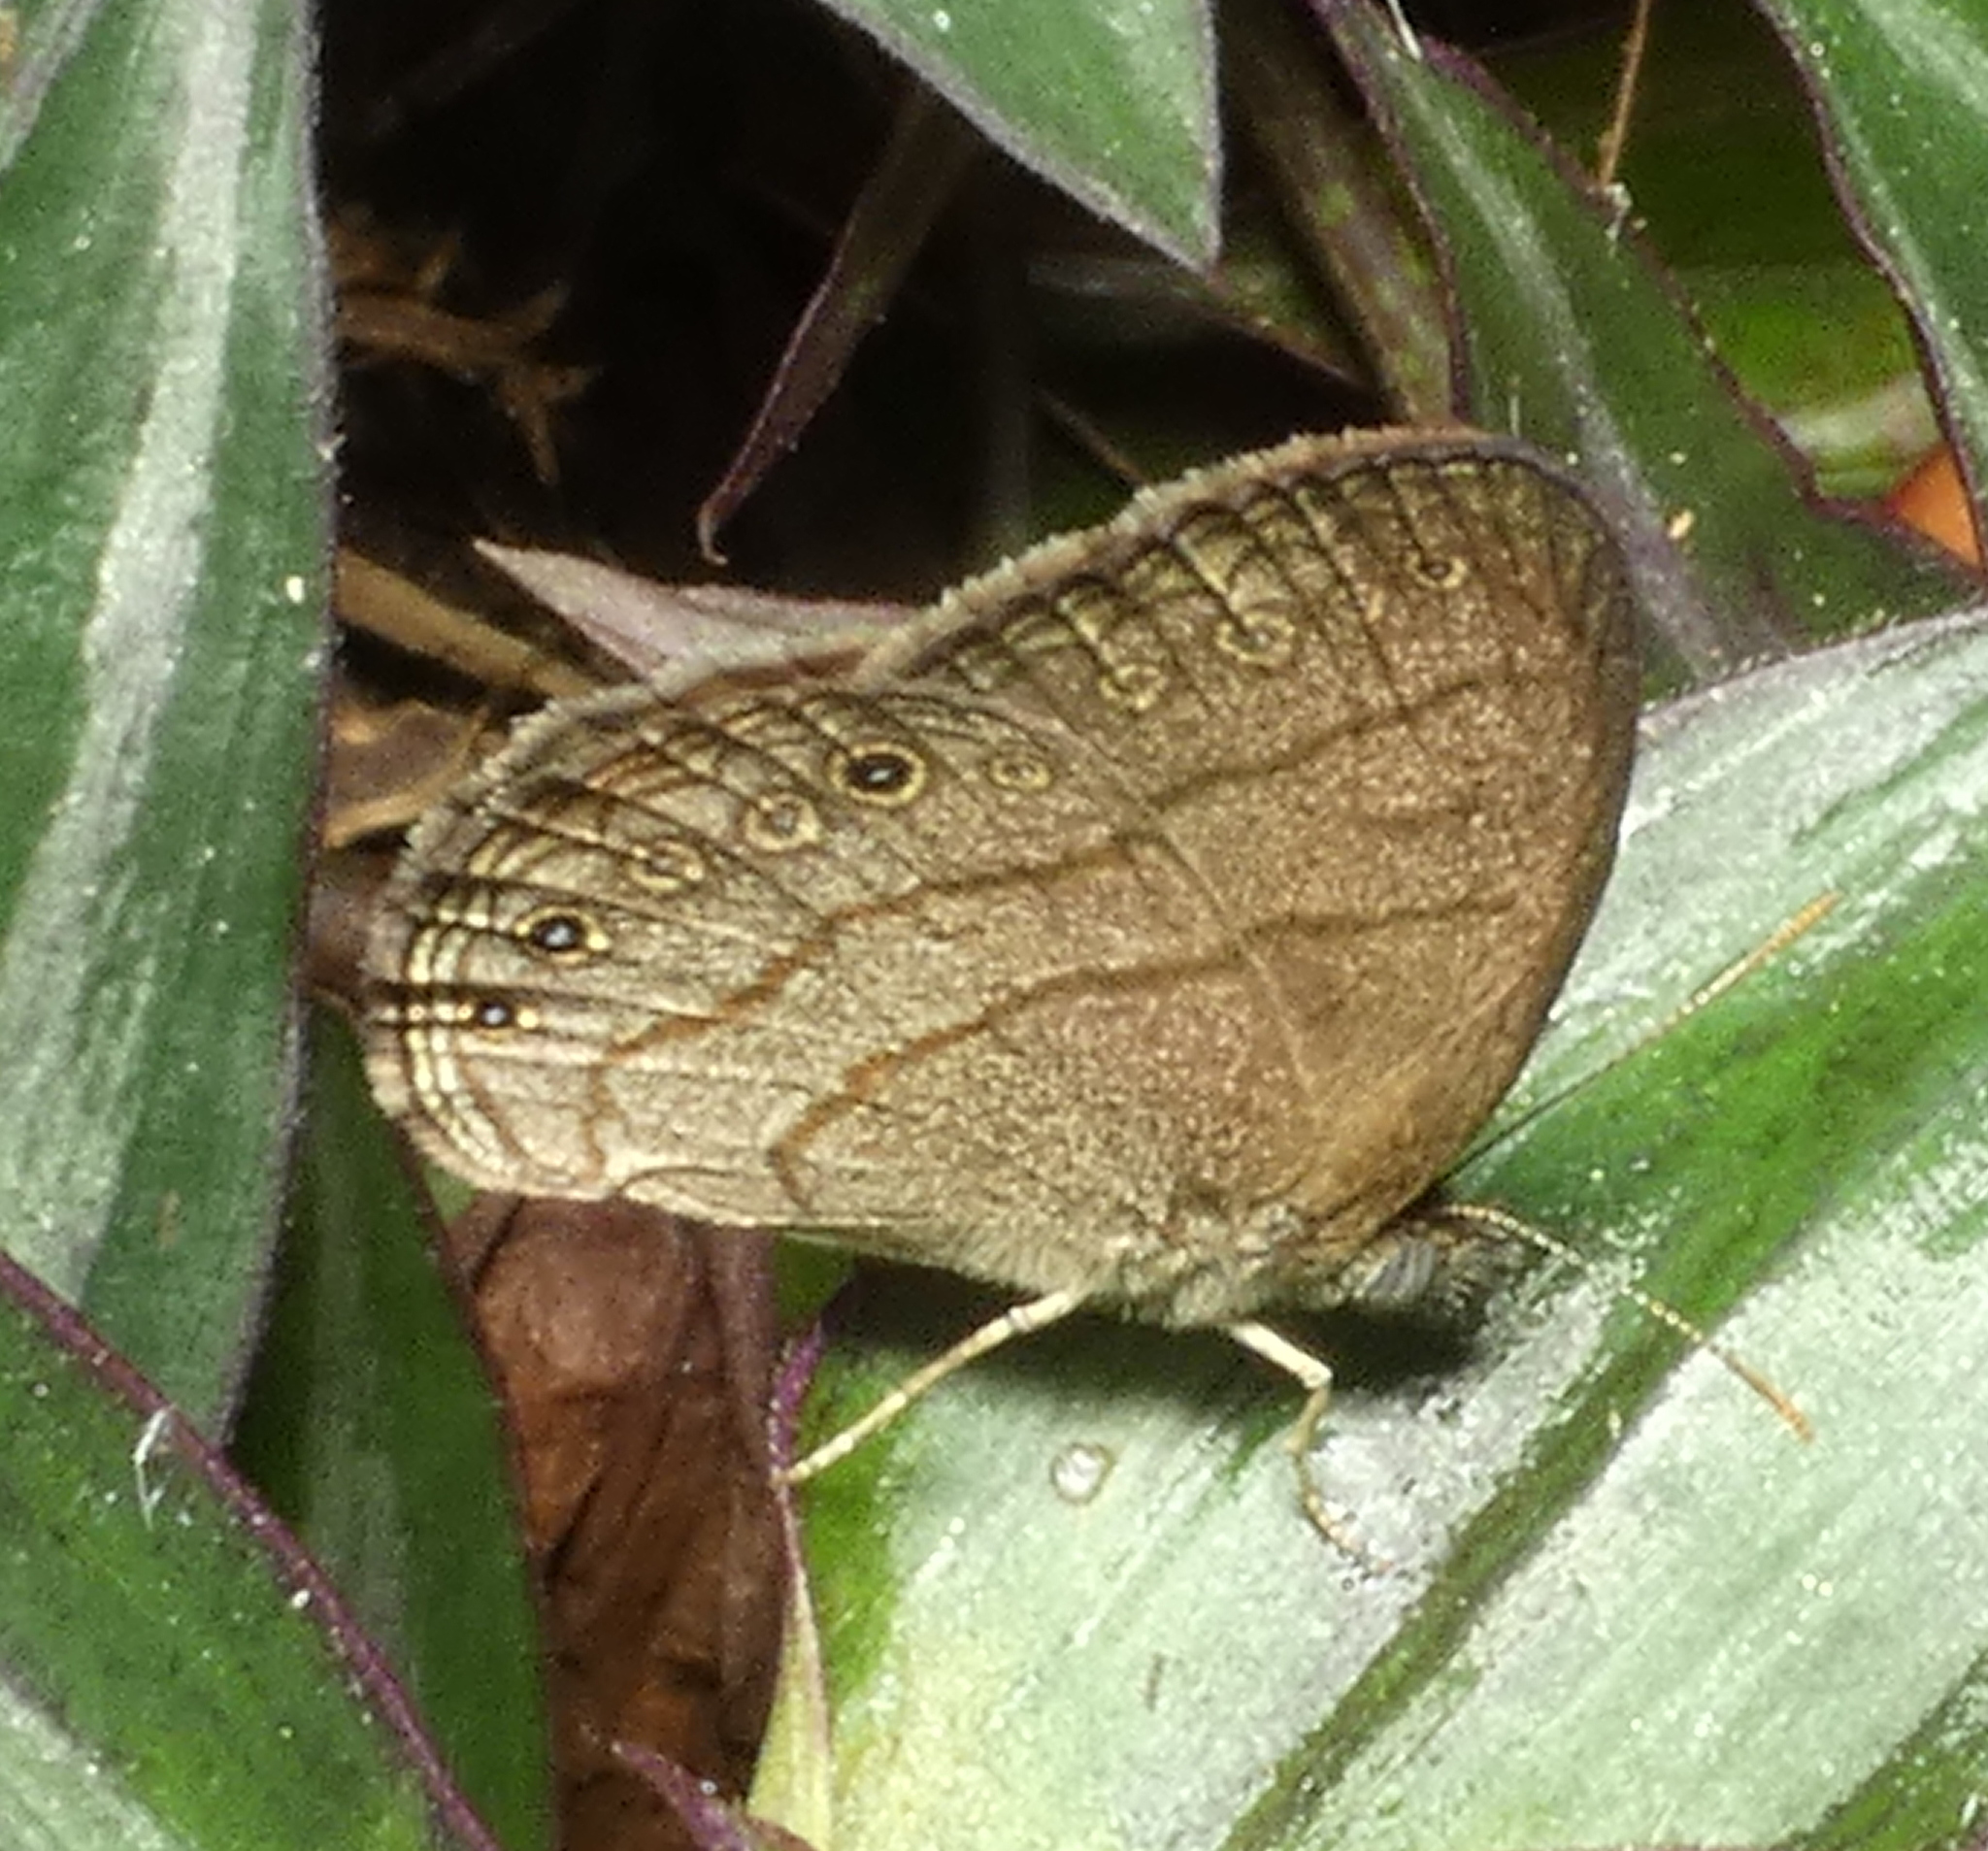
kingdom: Animalia
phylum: Arthropoda
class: Insecta
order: Lepidoptera
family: Nymphalidae
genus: Hermeuptychia
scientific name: Hermeuptychia hermes
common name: Hermes satyr
